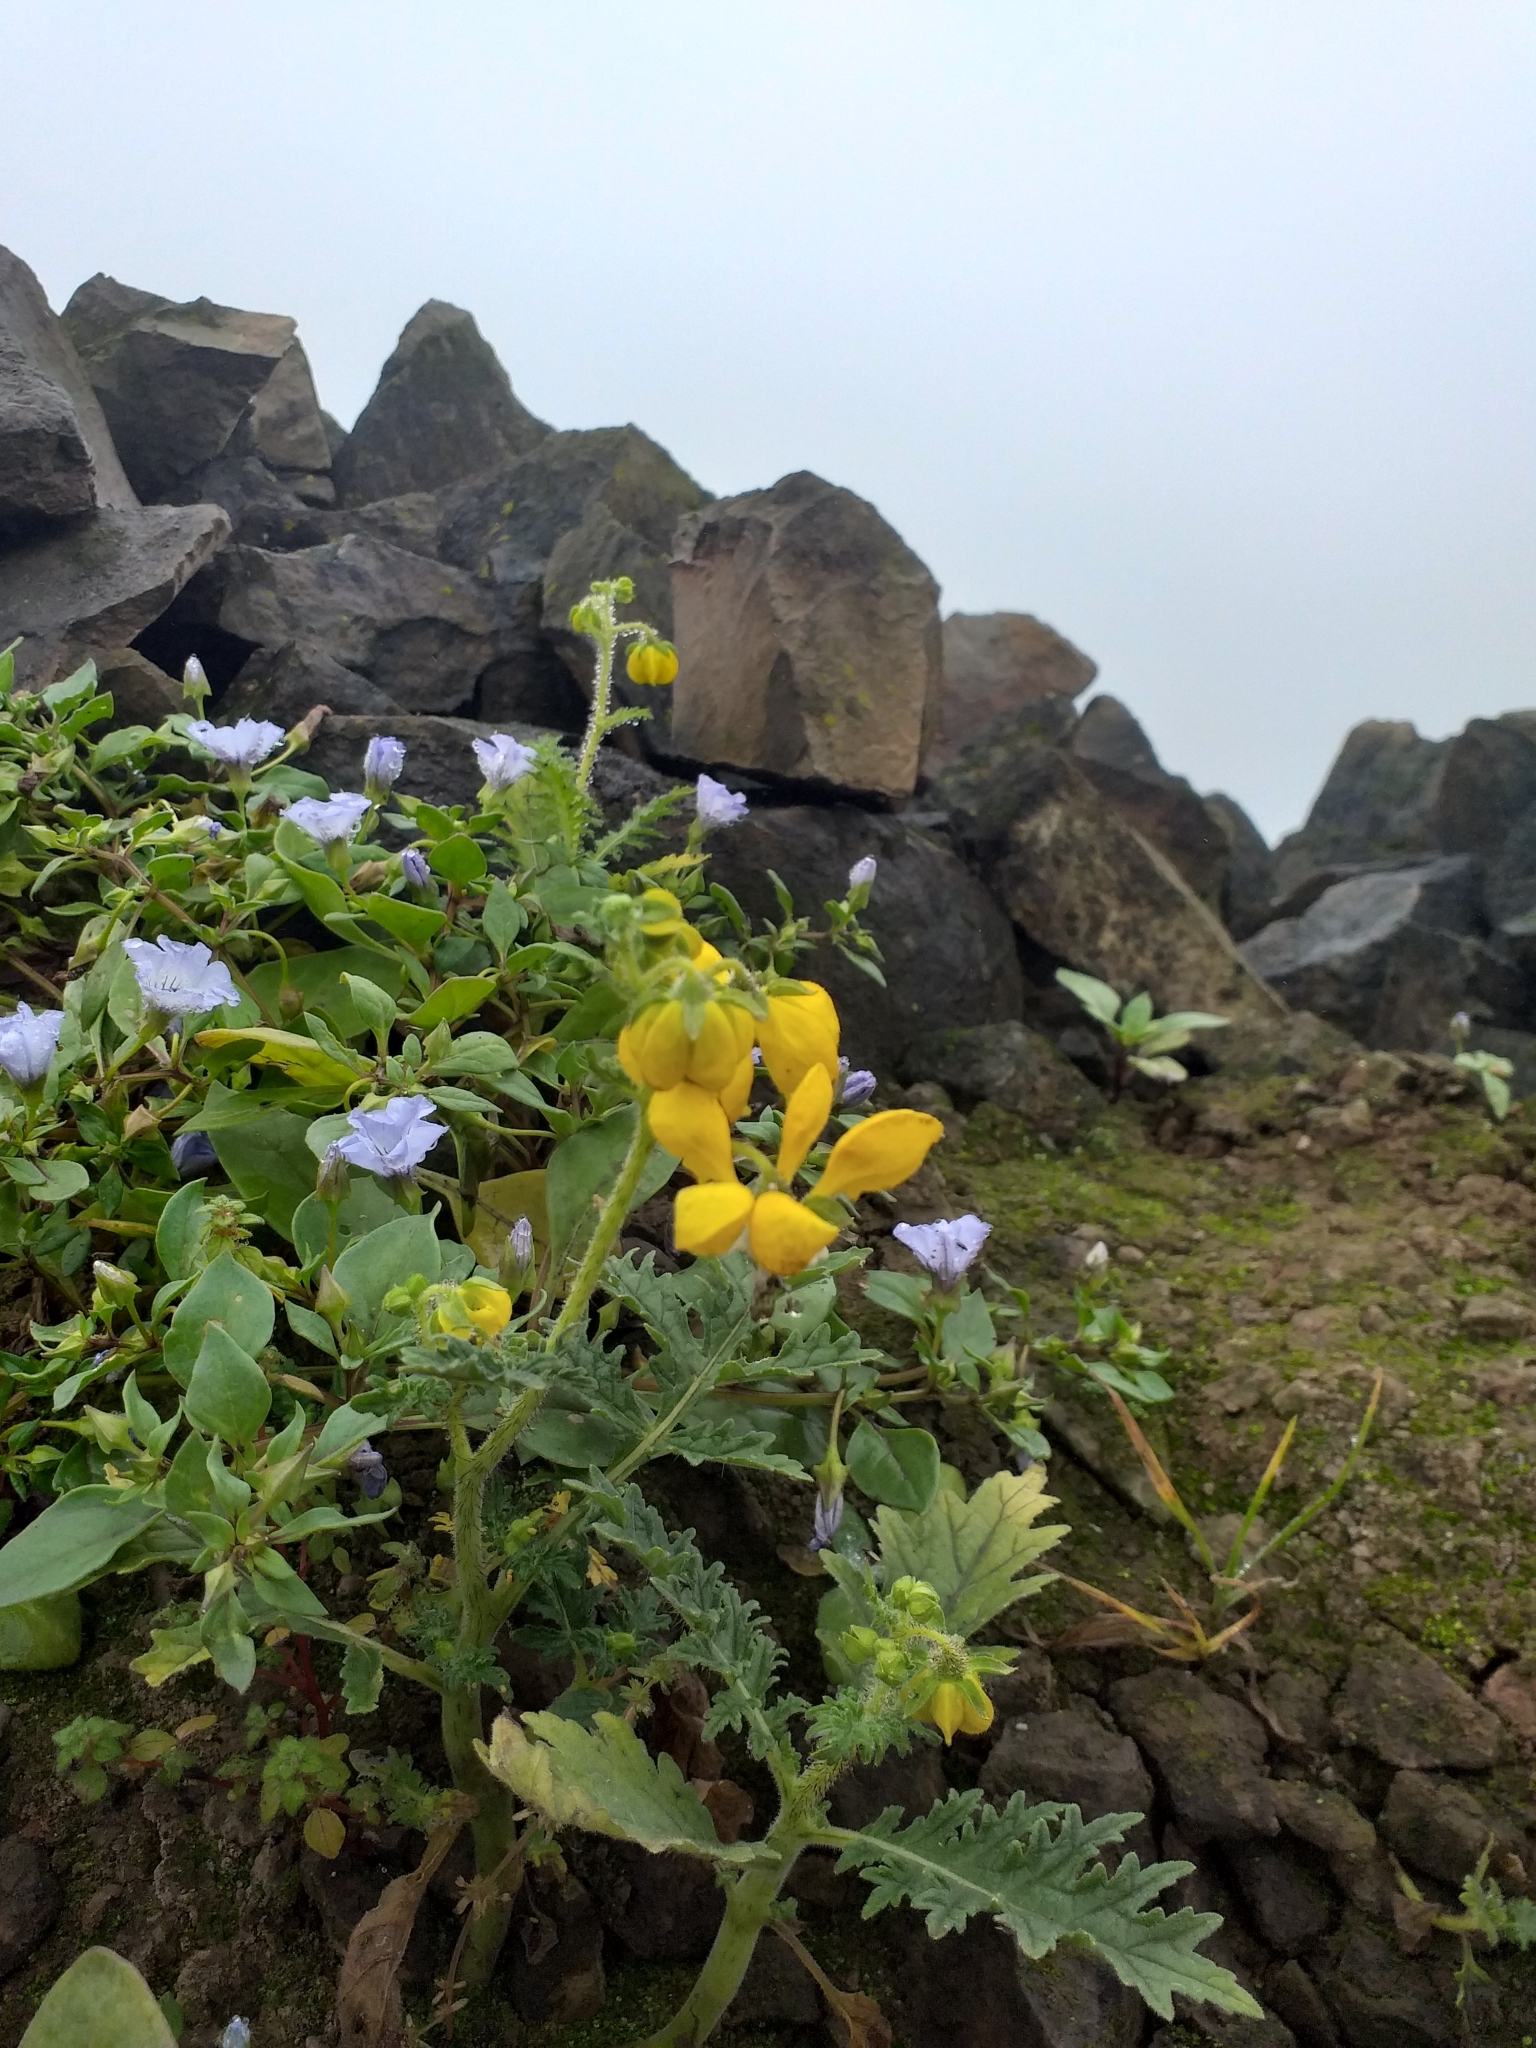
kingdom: Plantae
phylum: Tracheophyta
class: Magnoliopsida
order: Cornales
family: Loasaceae
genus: Nasa
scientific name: Nasa urens
